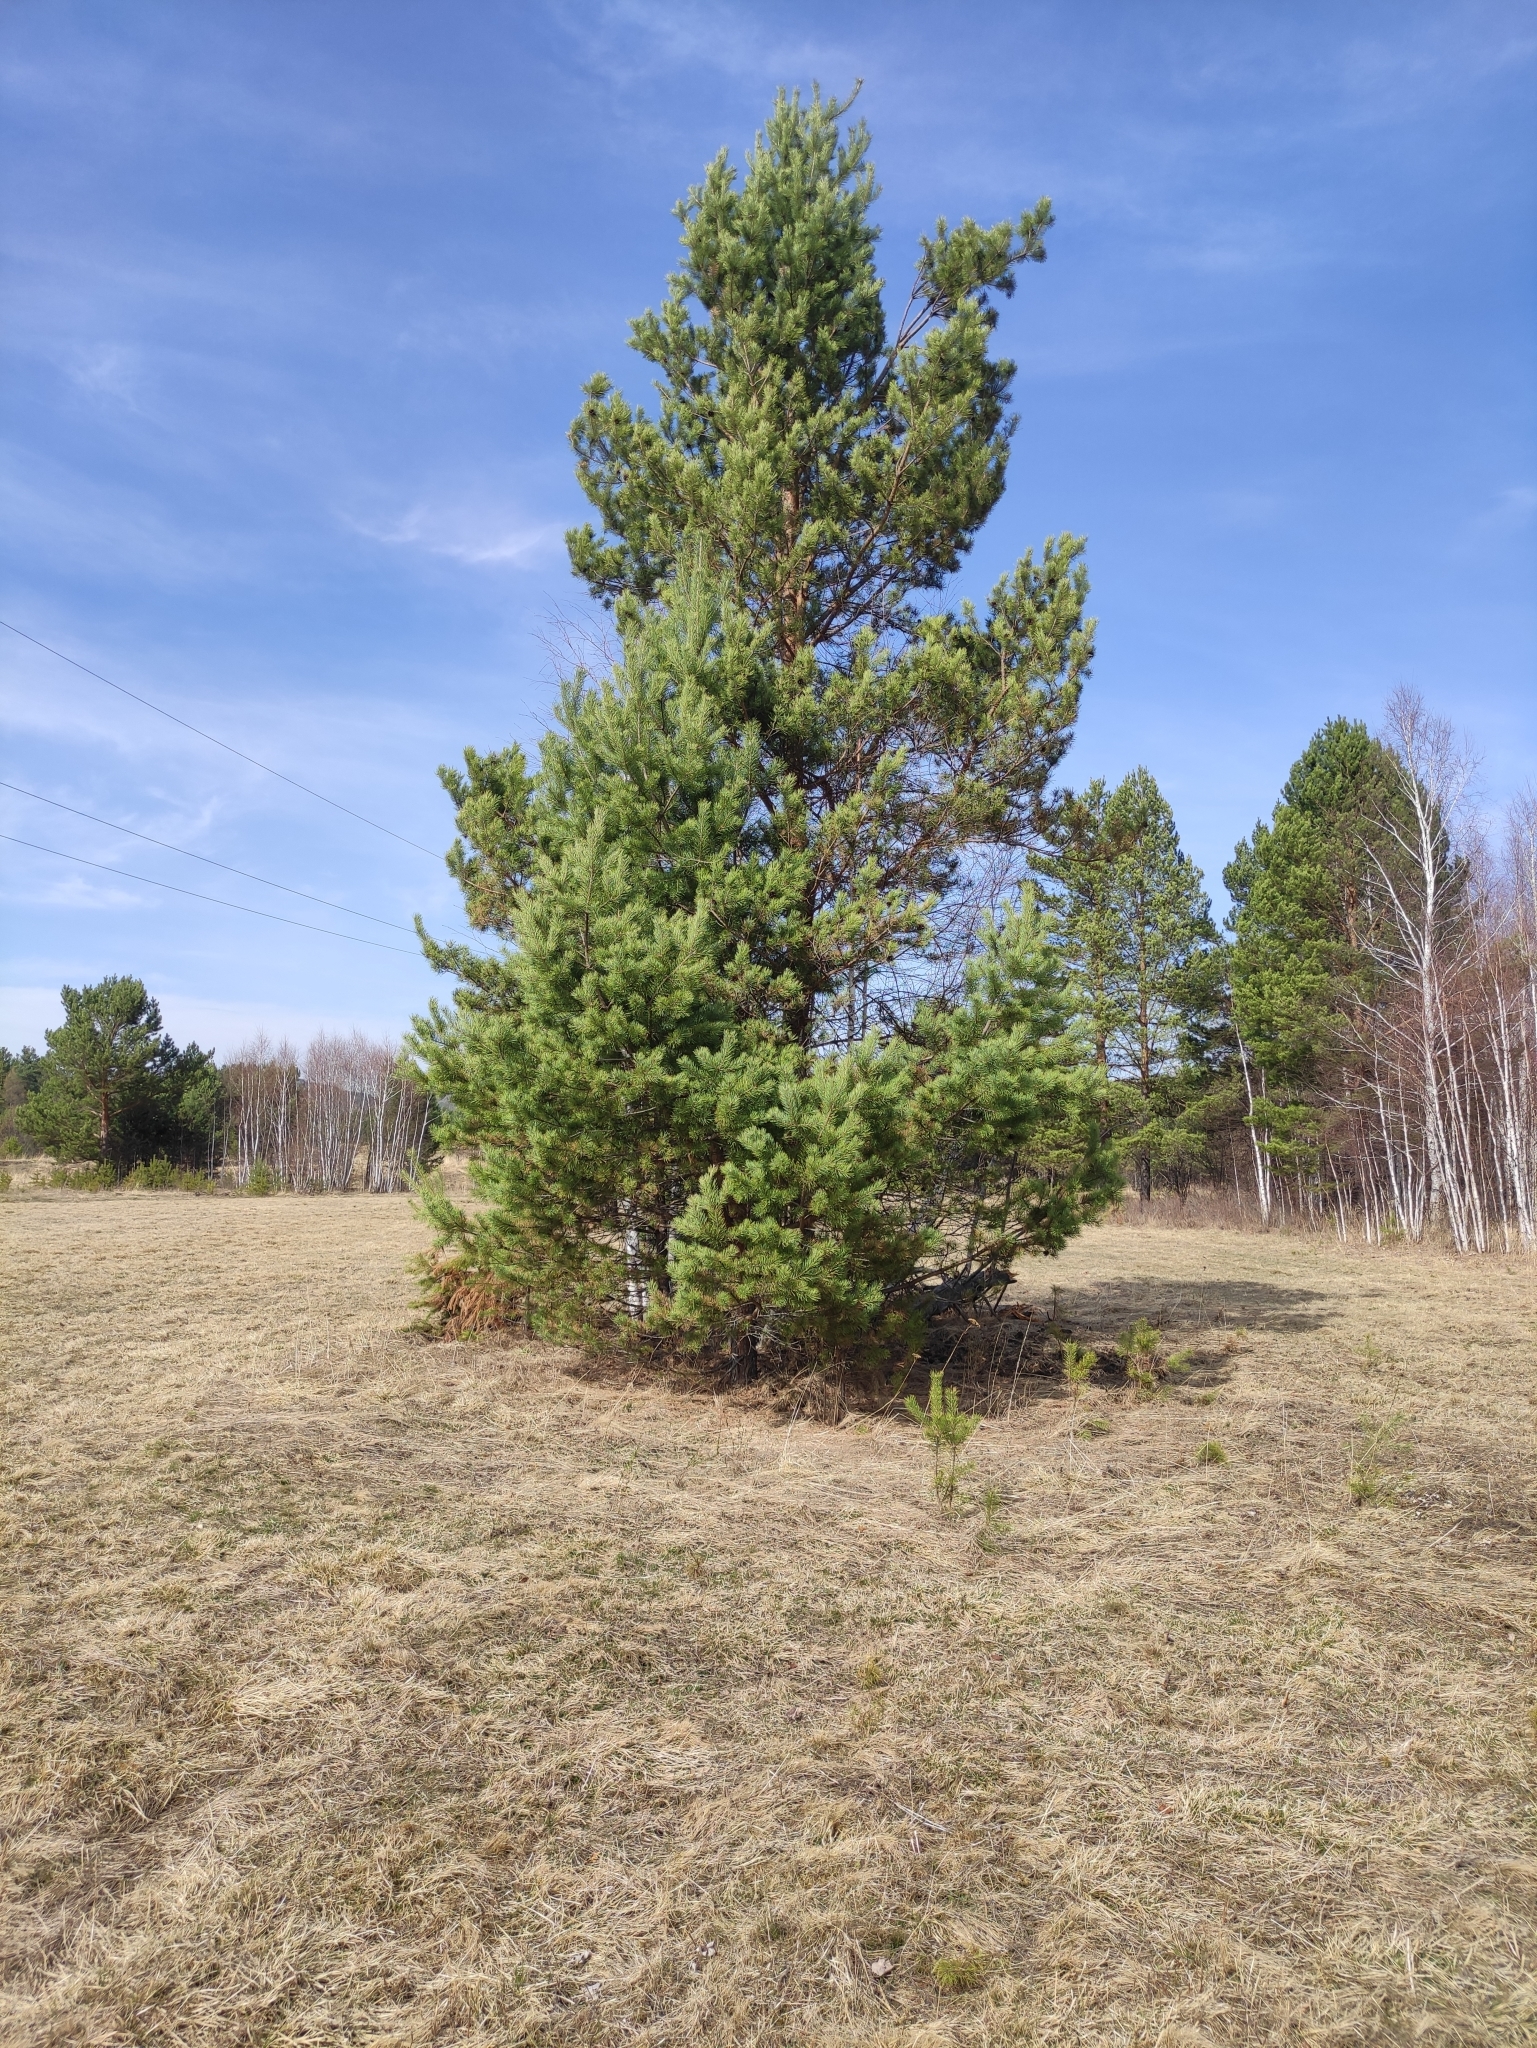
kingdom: Plantae
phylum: Tracheophyta
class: Pinopsida
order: Pinales
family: Pinaceae
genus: Pinus
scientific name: Pinus sylvestris
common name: Scots pine
